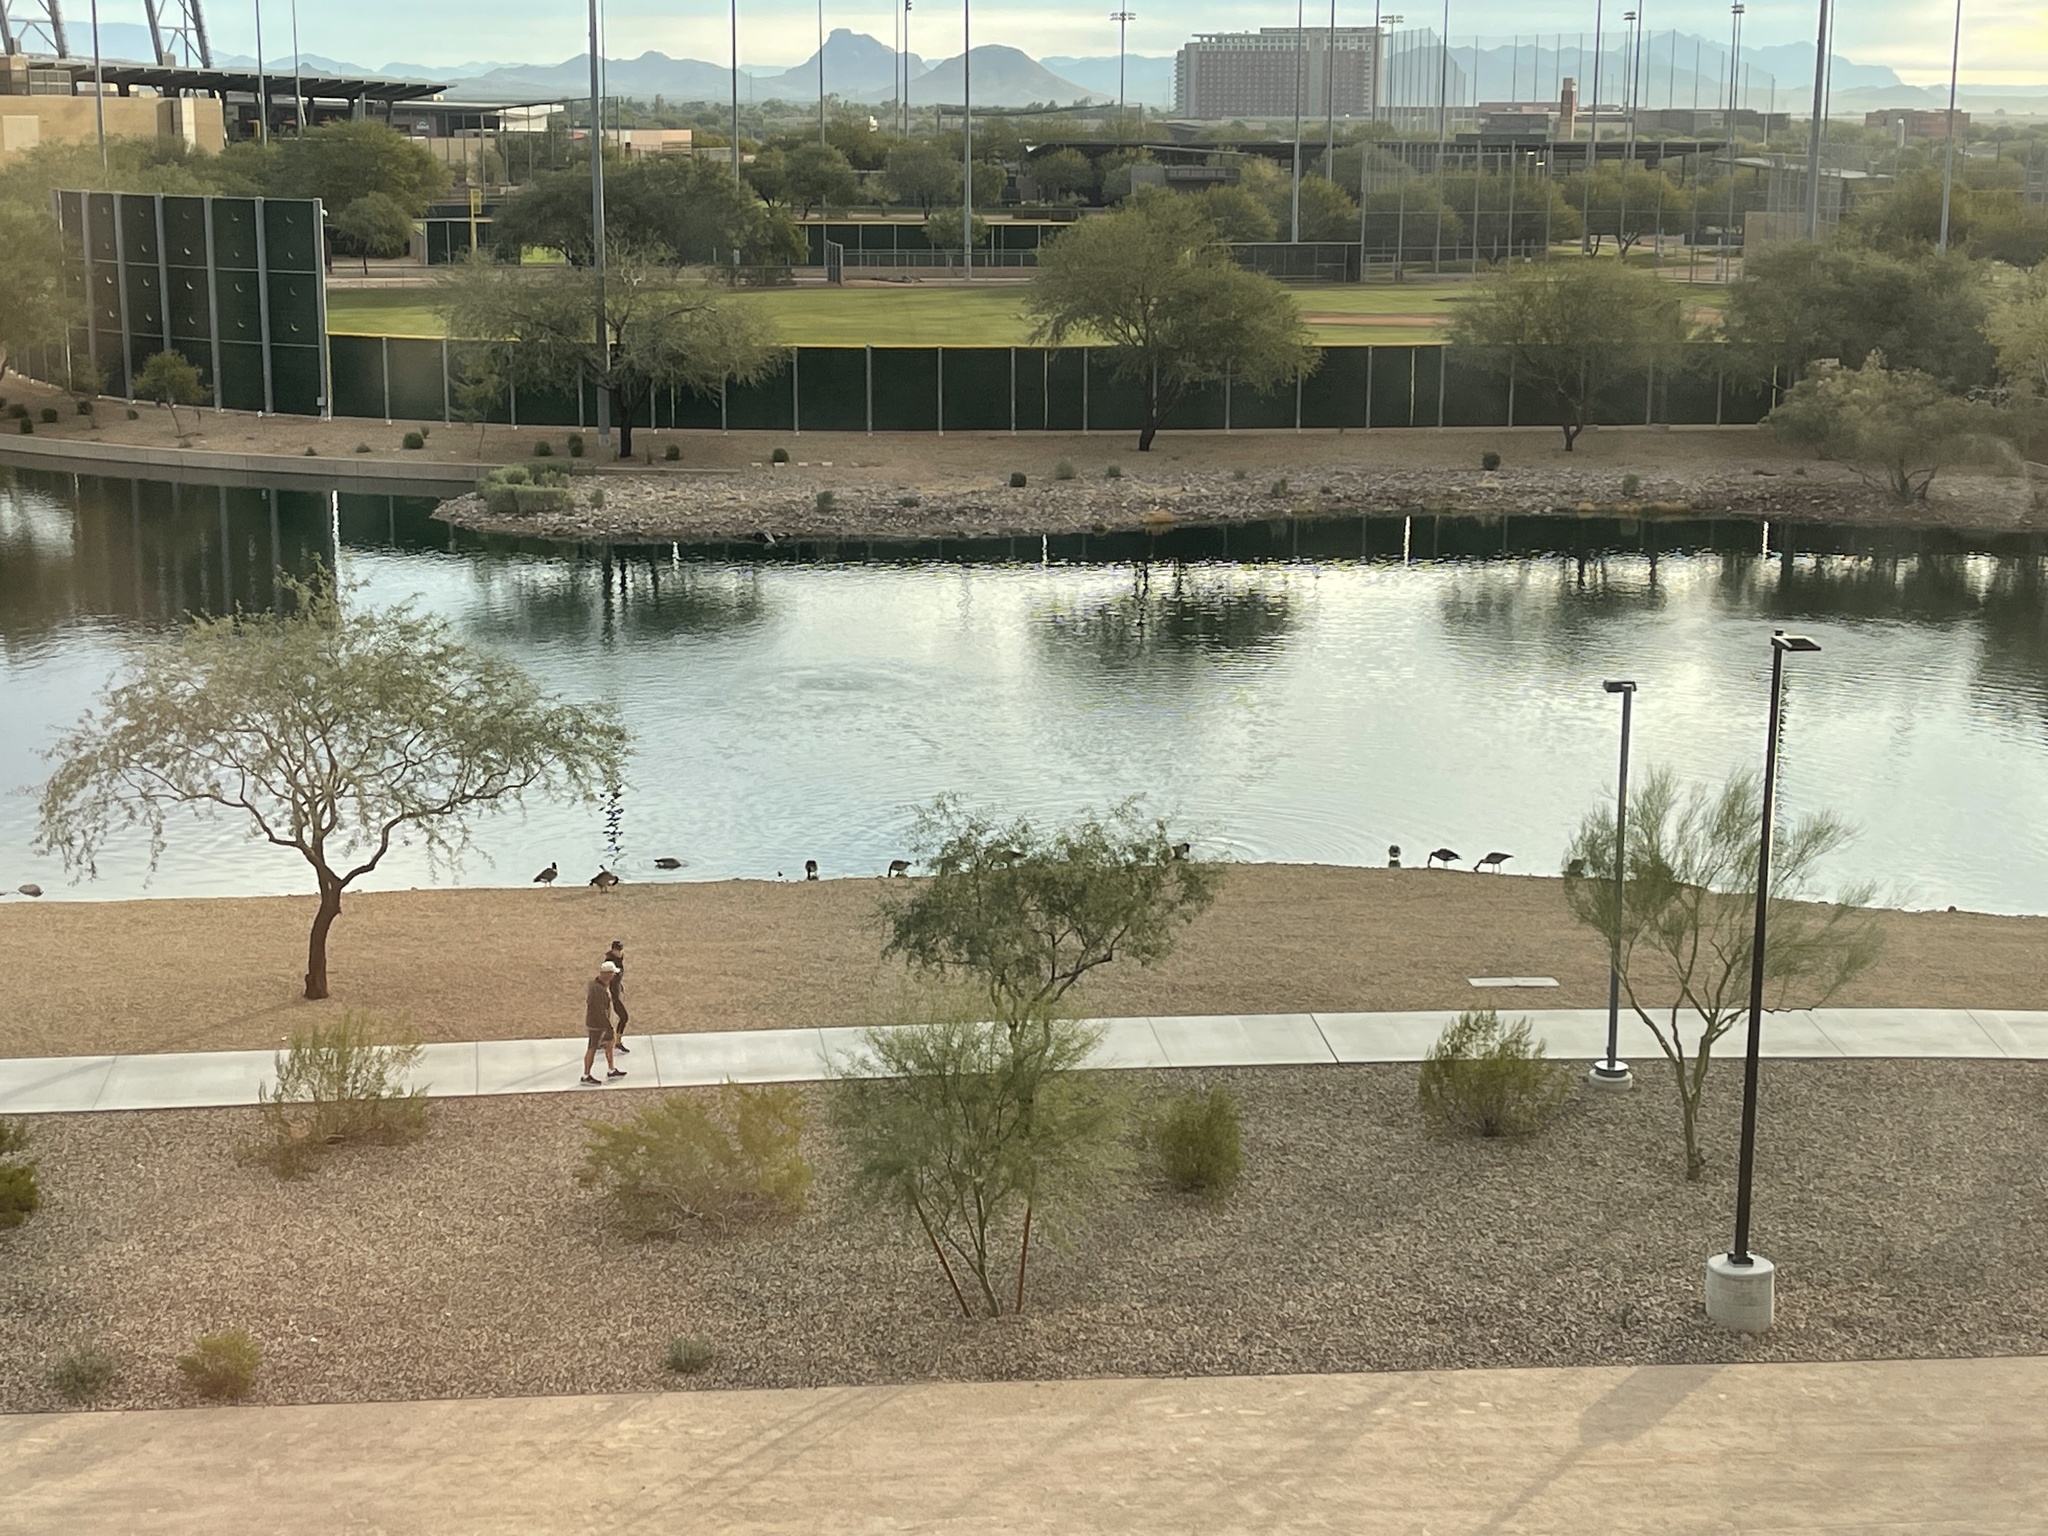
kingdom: Animalia
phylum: Chordata
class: Aves
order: Anseriformes
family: Anatidae
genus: Branta
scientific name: Branta canadensis
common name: Canada goose
